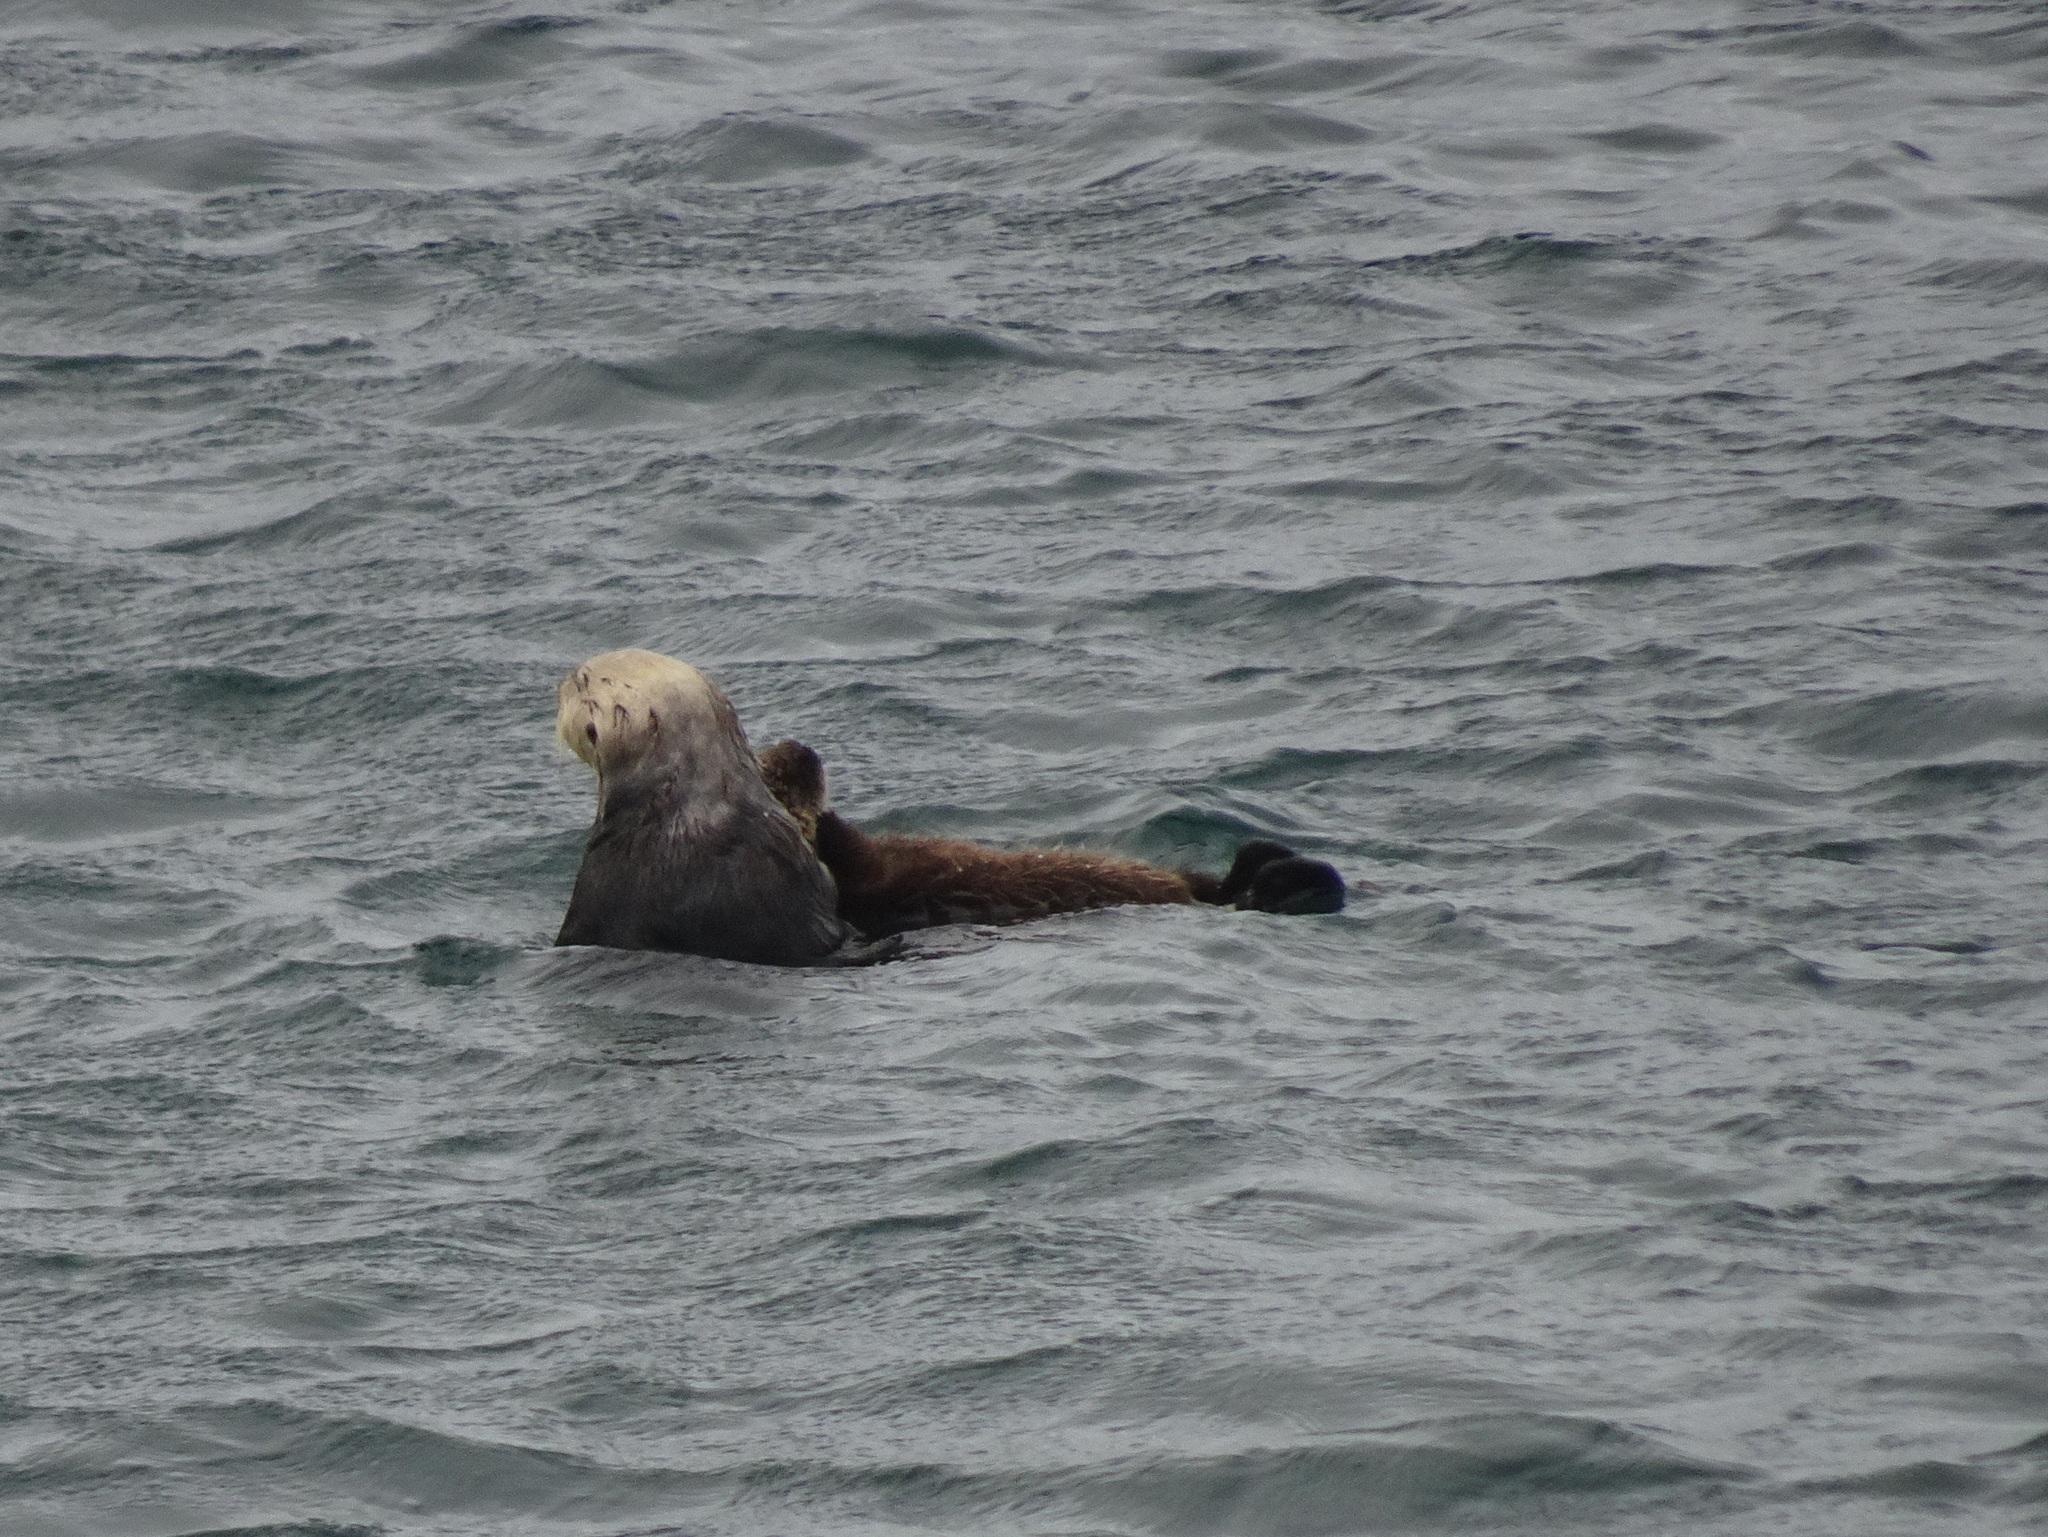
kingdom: Animalia
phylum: Chordata
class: Mammalia
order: Carnivora
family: Mustelidae
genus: Enhydra
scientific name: Enhydra lutris
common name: Sea otter
